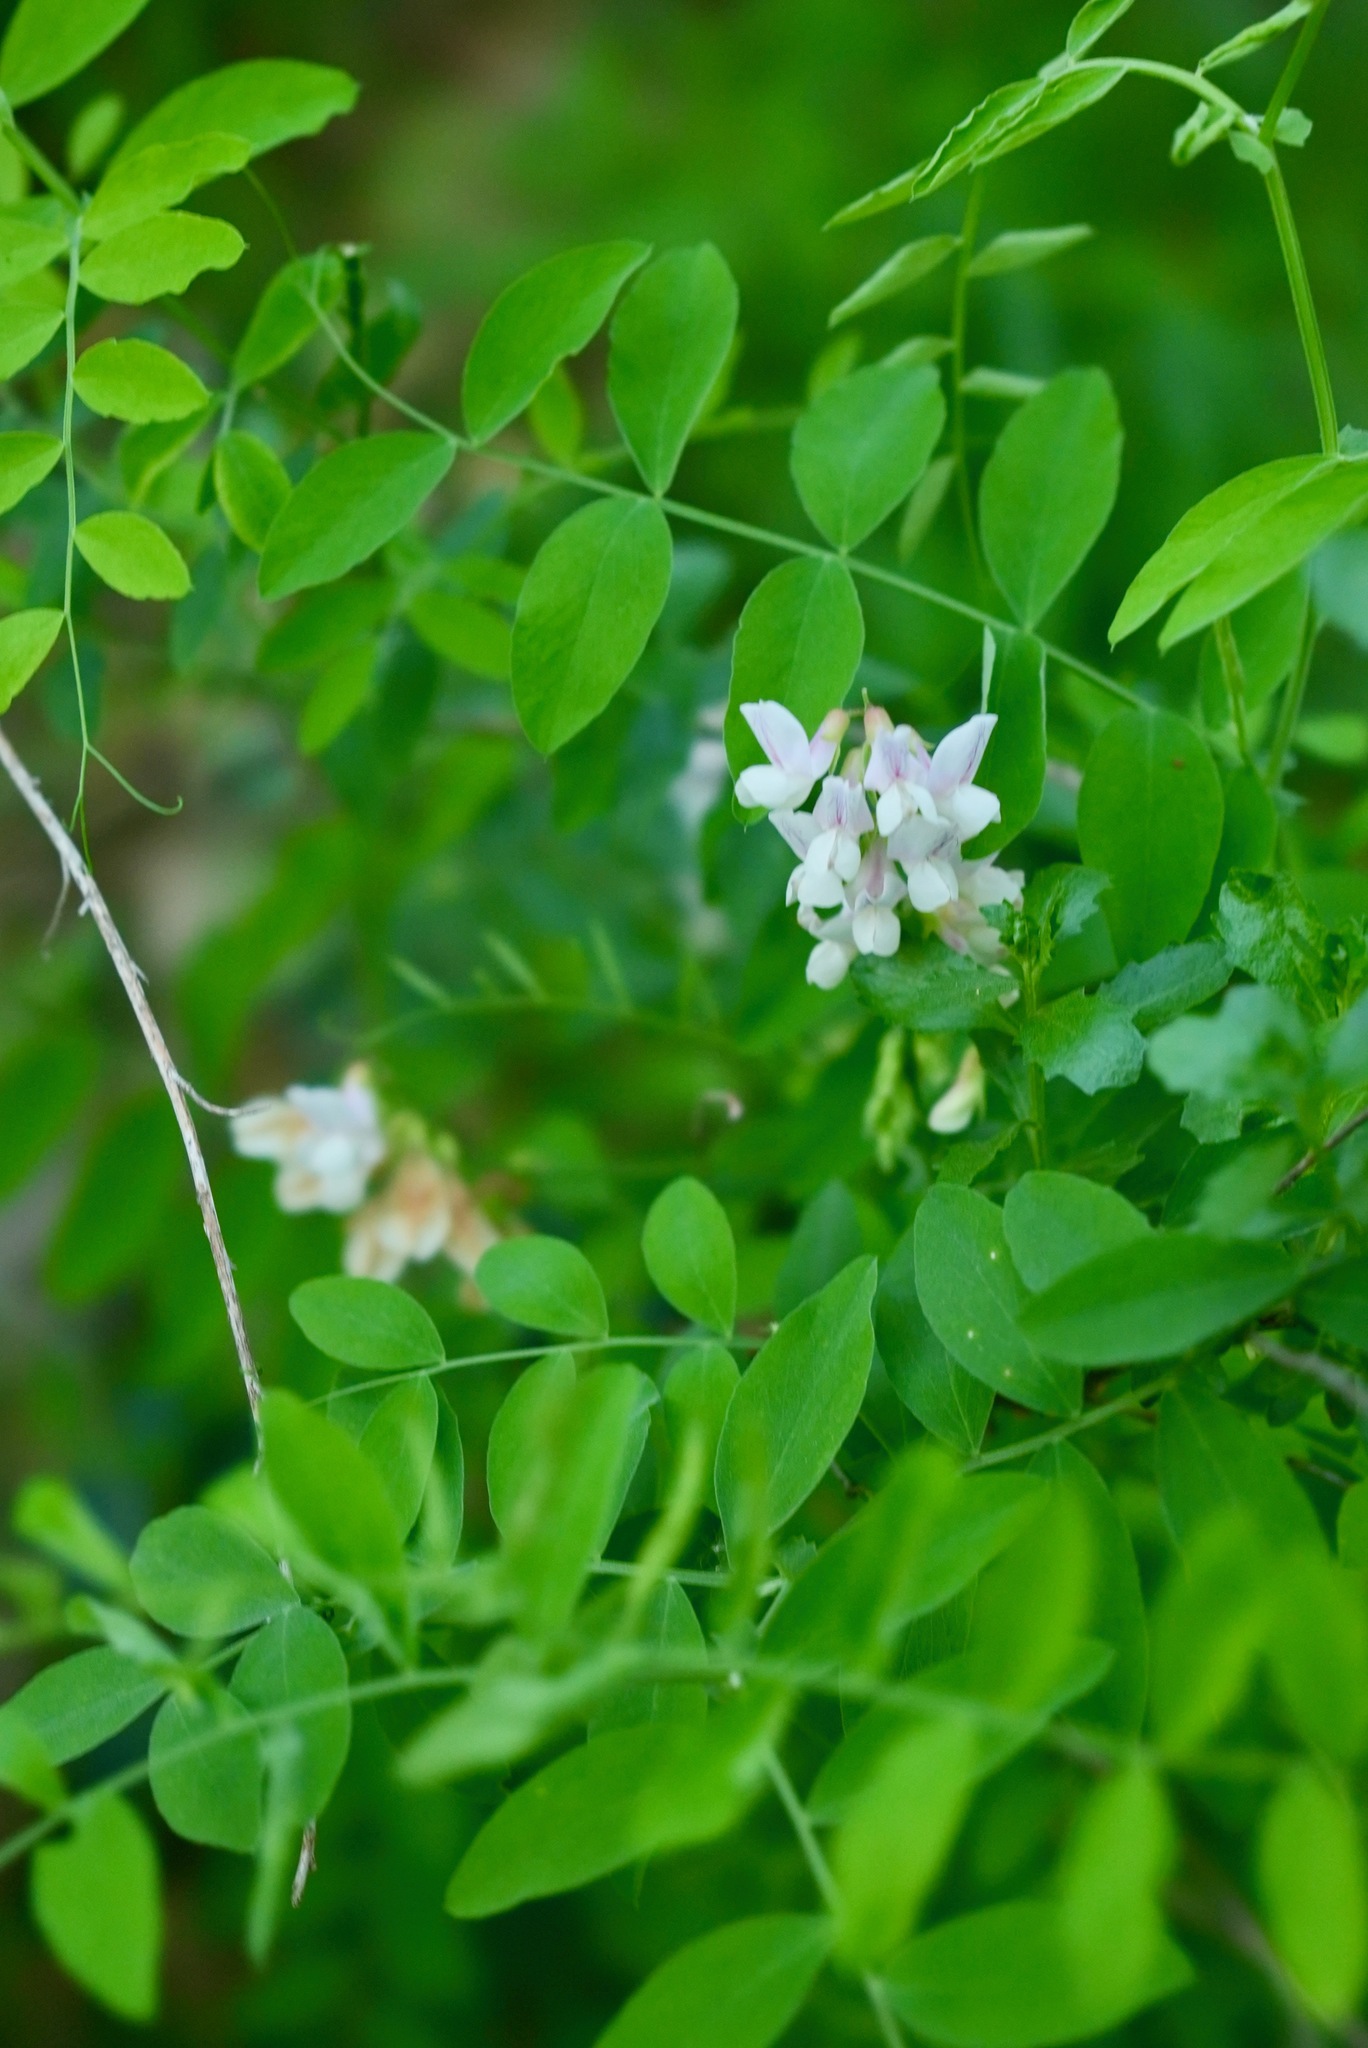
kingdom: Plantae
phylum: Tracheophyta
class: Magnoliopsida
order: Fabales
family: Fabaceae
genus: Lathyrus
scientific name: Lathyrus vestitus
